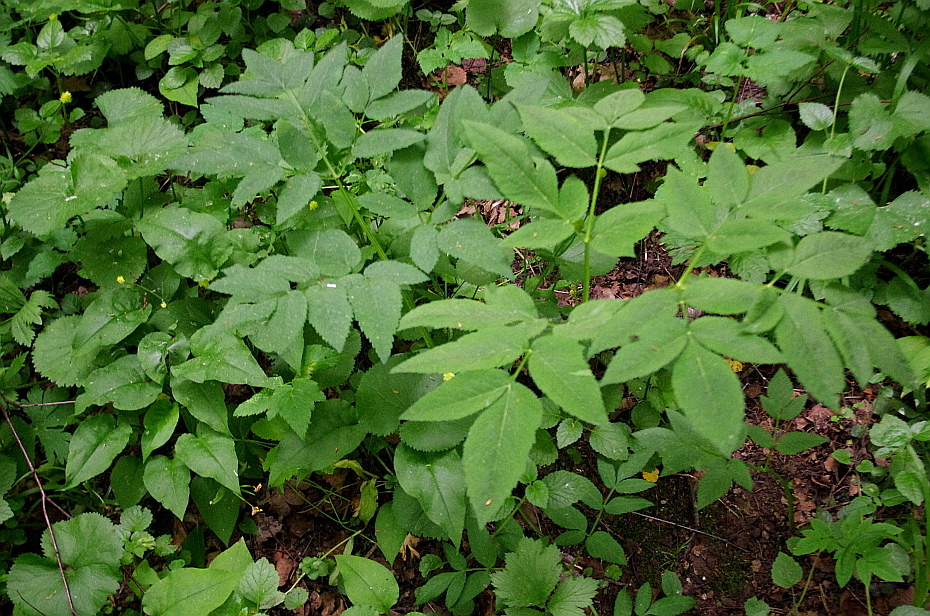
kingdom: Plantae
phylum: Tracheophyta
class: Magnoliopsida
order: Apiales
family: Apiaceae
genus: Angelica
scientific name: Angelica sylvestris
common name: Wild angelica
